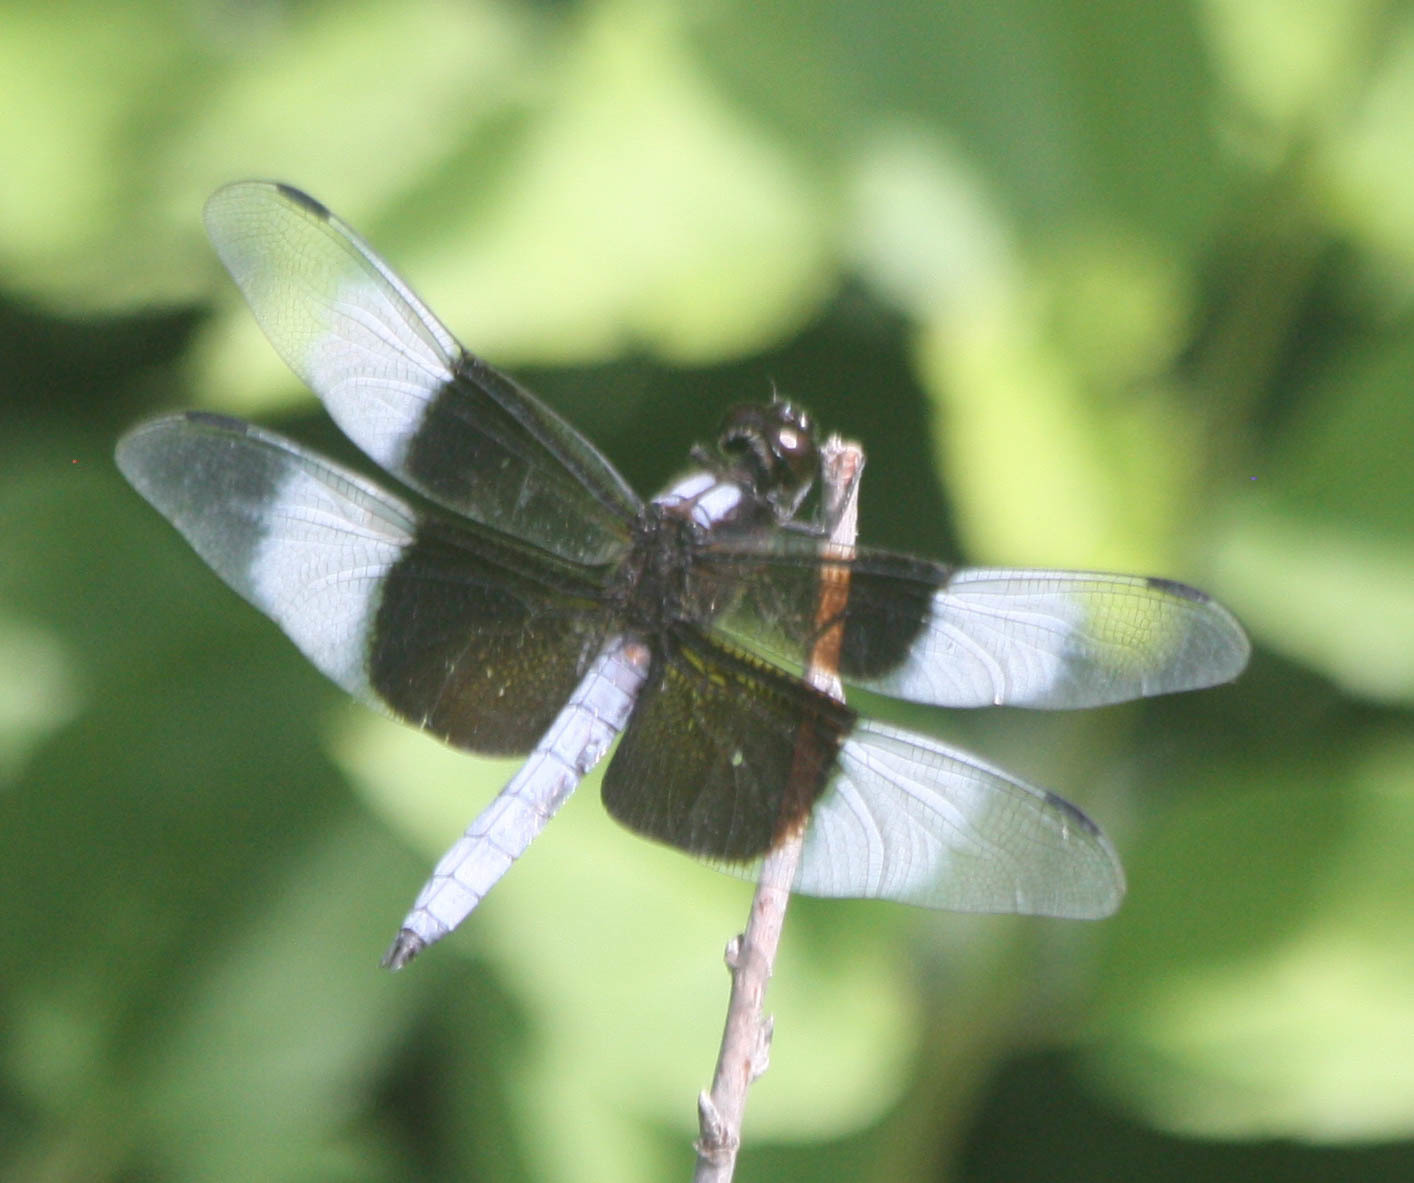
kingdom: Animalia
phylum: Arthropoda
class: Insecta
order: Odonata
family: Libellulidae
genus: Libellula
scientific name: Libellula luctuosa
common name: Widow skimmer
